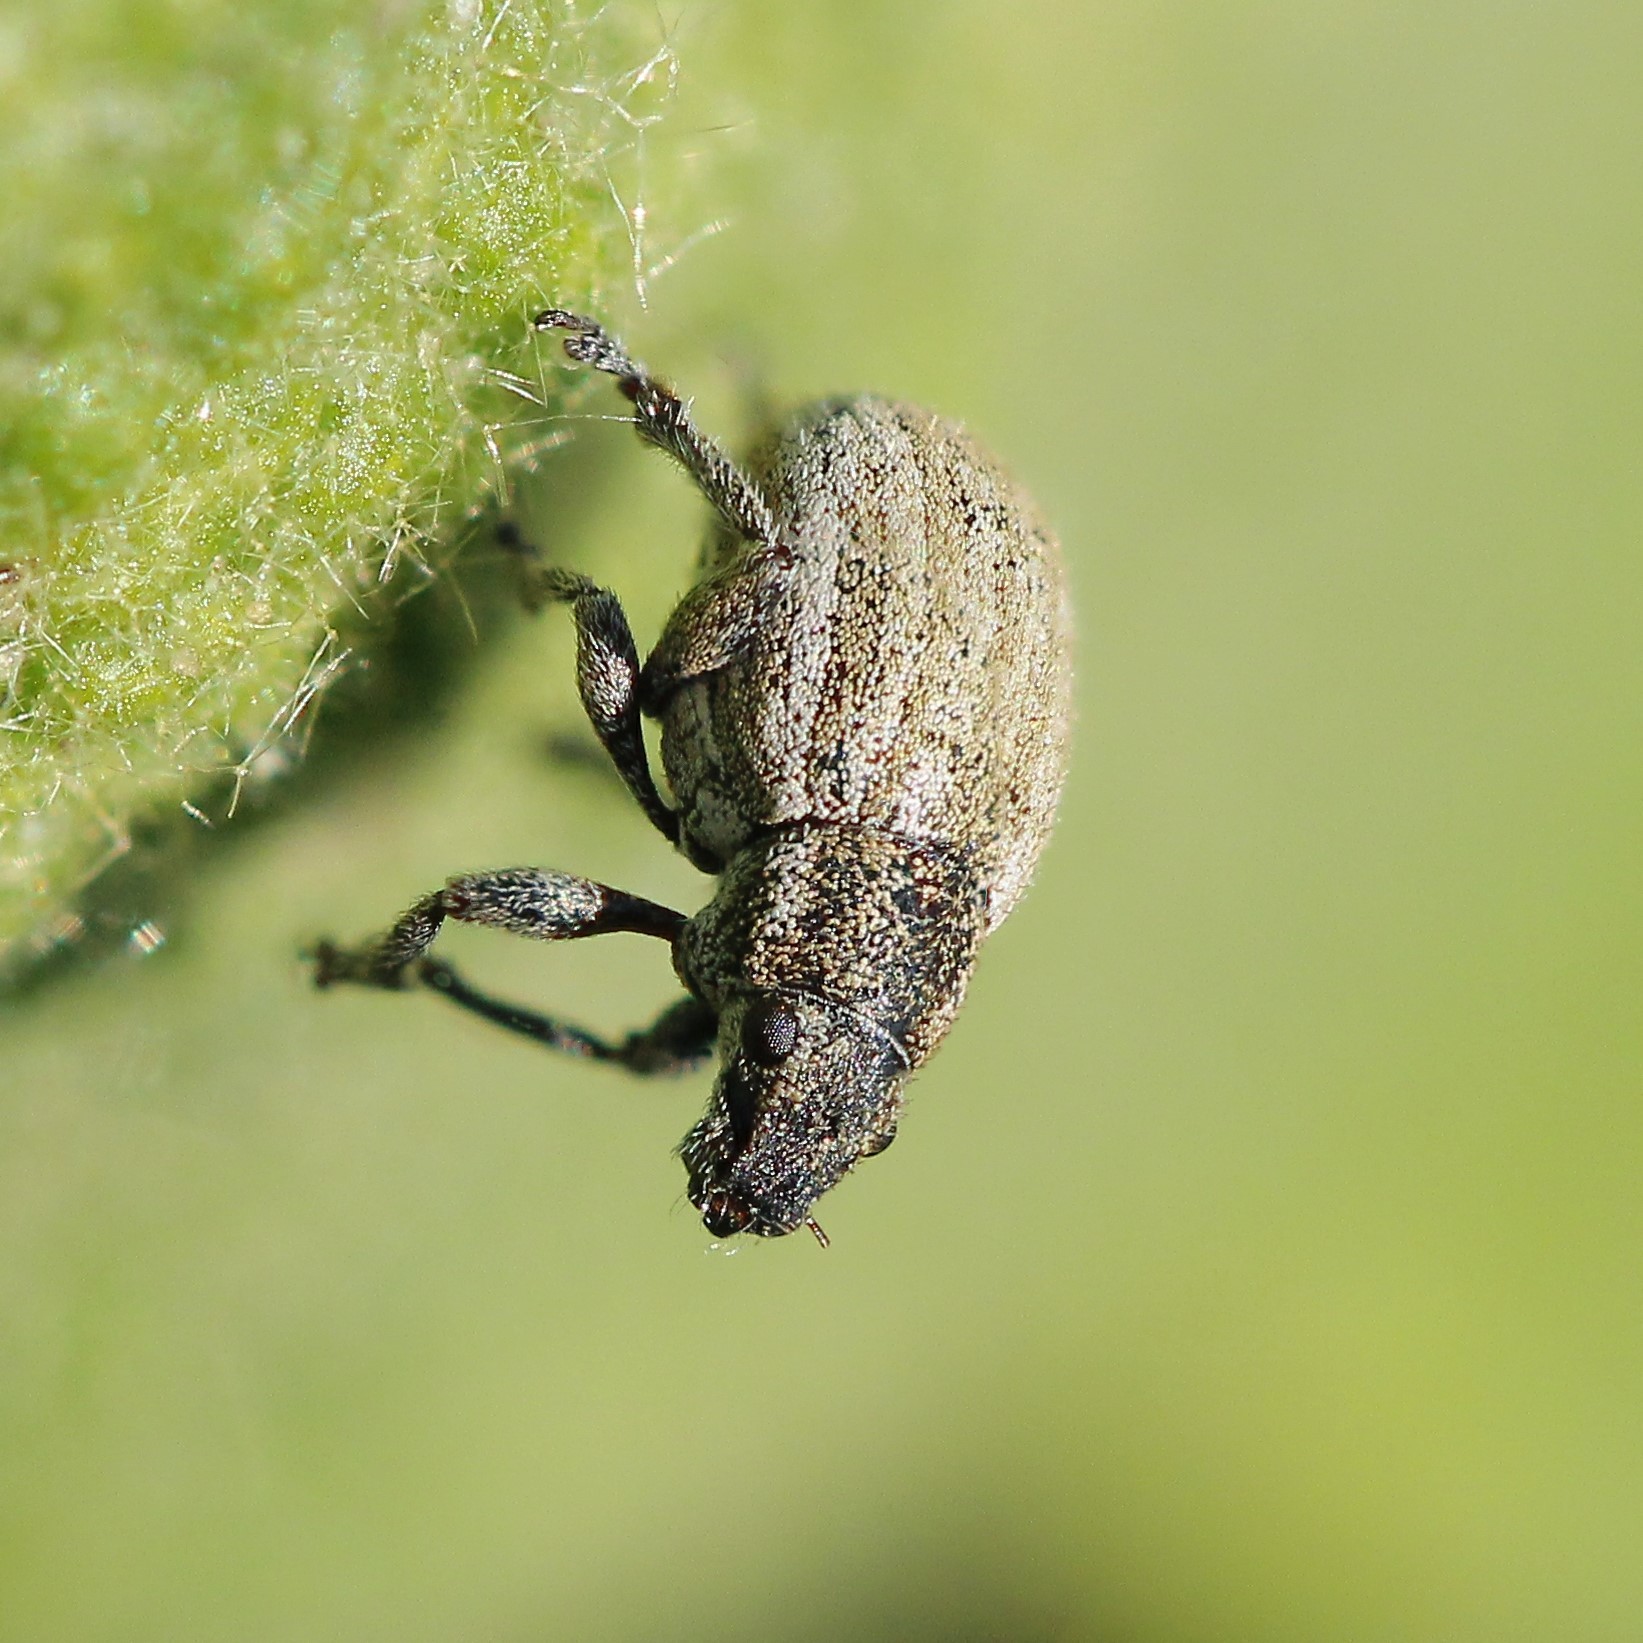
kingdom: Animalia
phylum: Arthropoda
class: Insecta
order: Coleoptera
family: Curculionidae
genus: Strophosoma
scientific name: Strophosoma albosignatum
